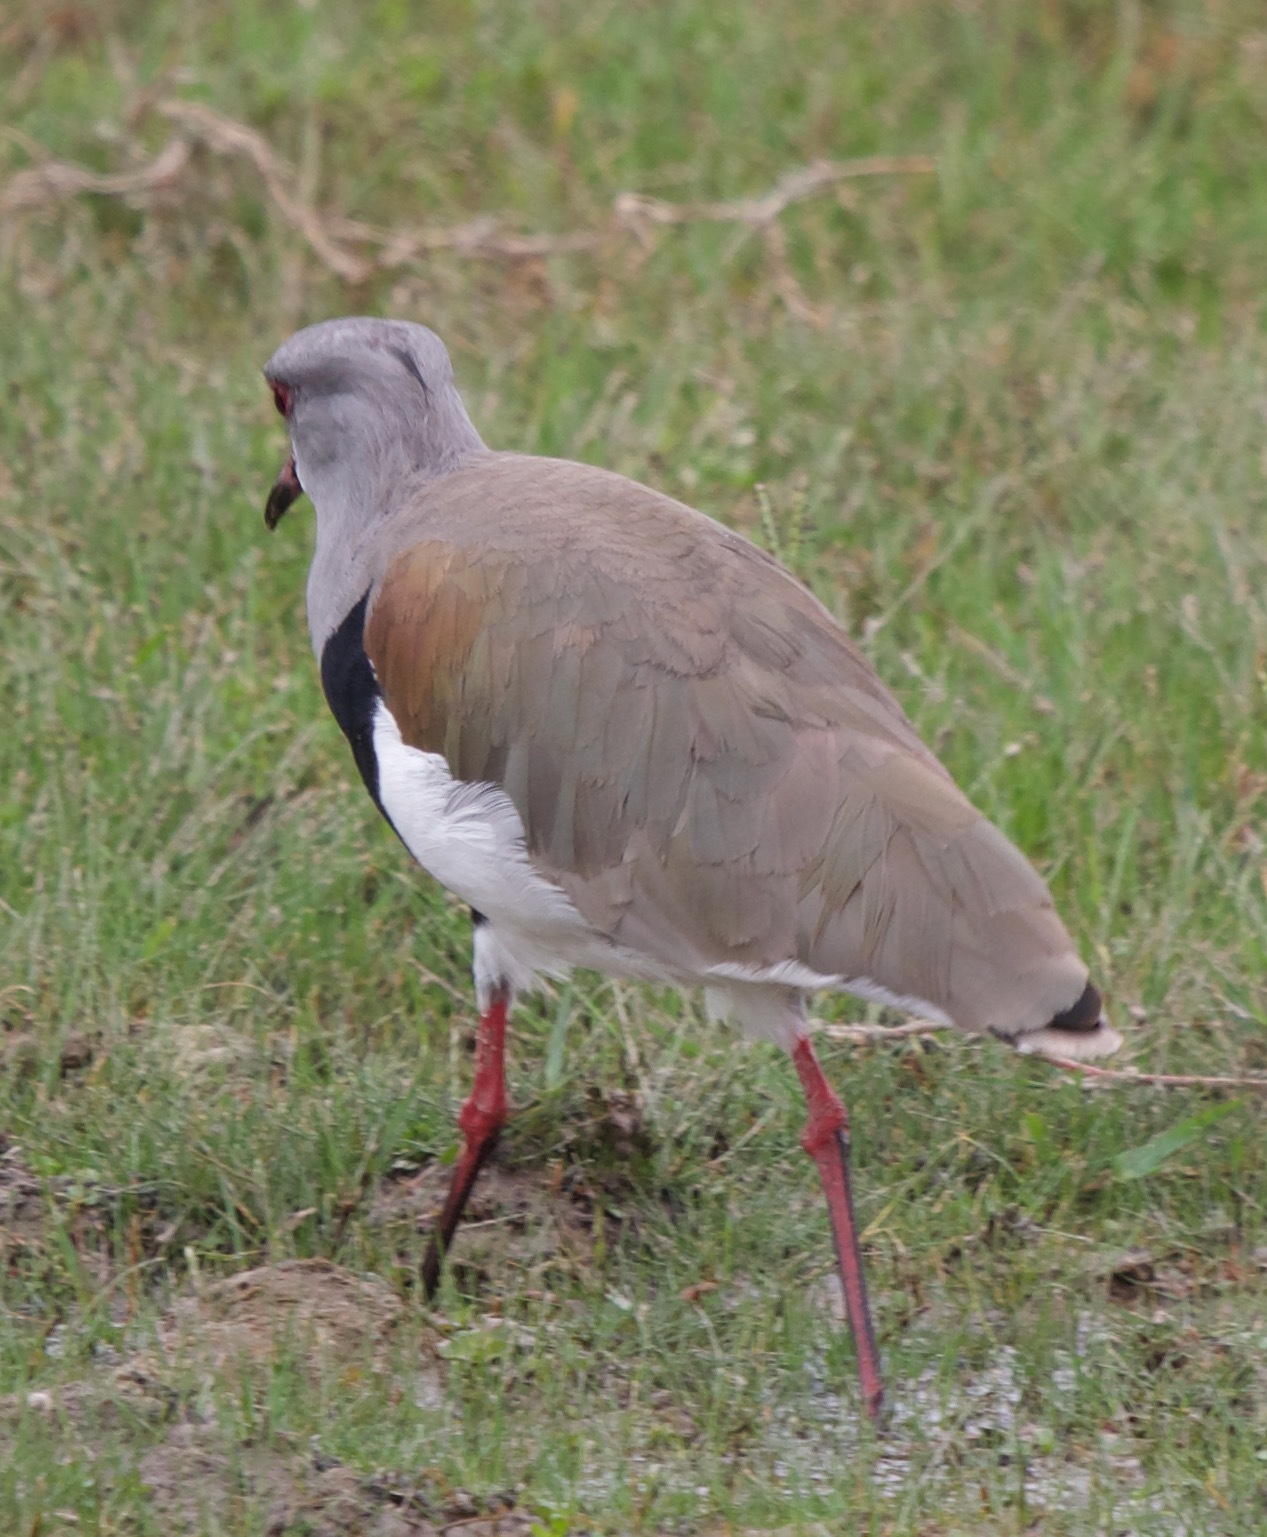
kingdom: Animalia
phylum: Chordata
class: Aves
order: Charadriiformes
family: Charadriidae
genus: Vanellus
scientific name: Vanellus chilensis
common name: Southern lapwing
